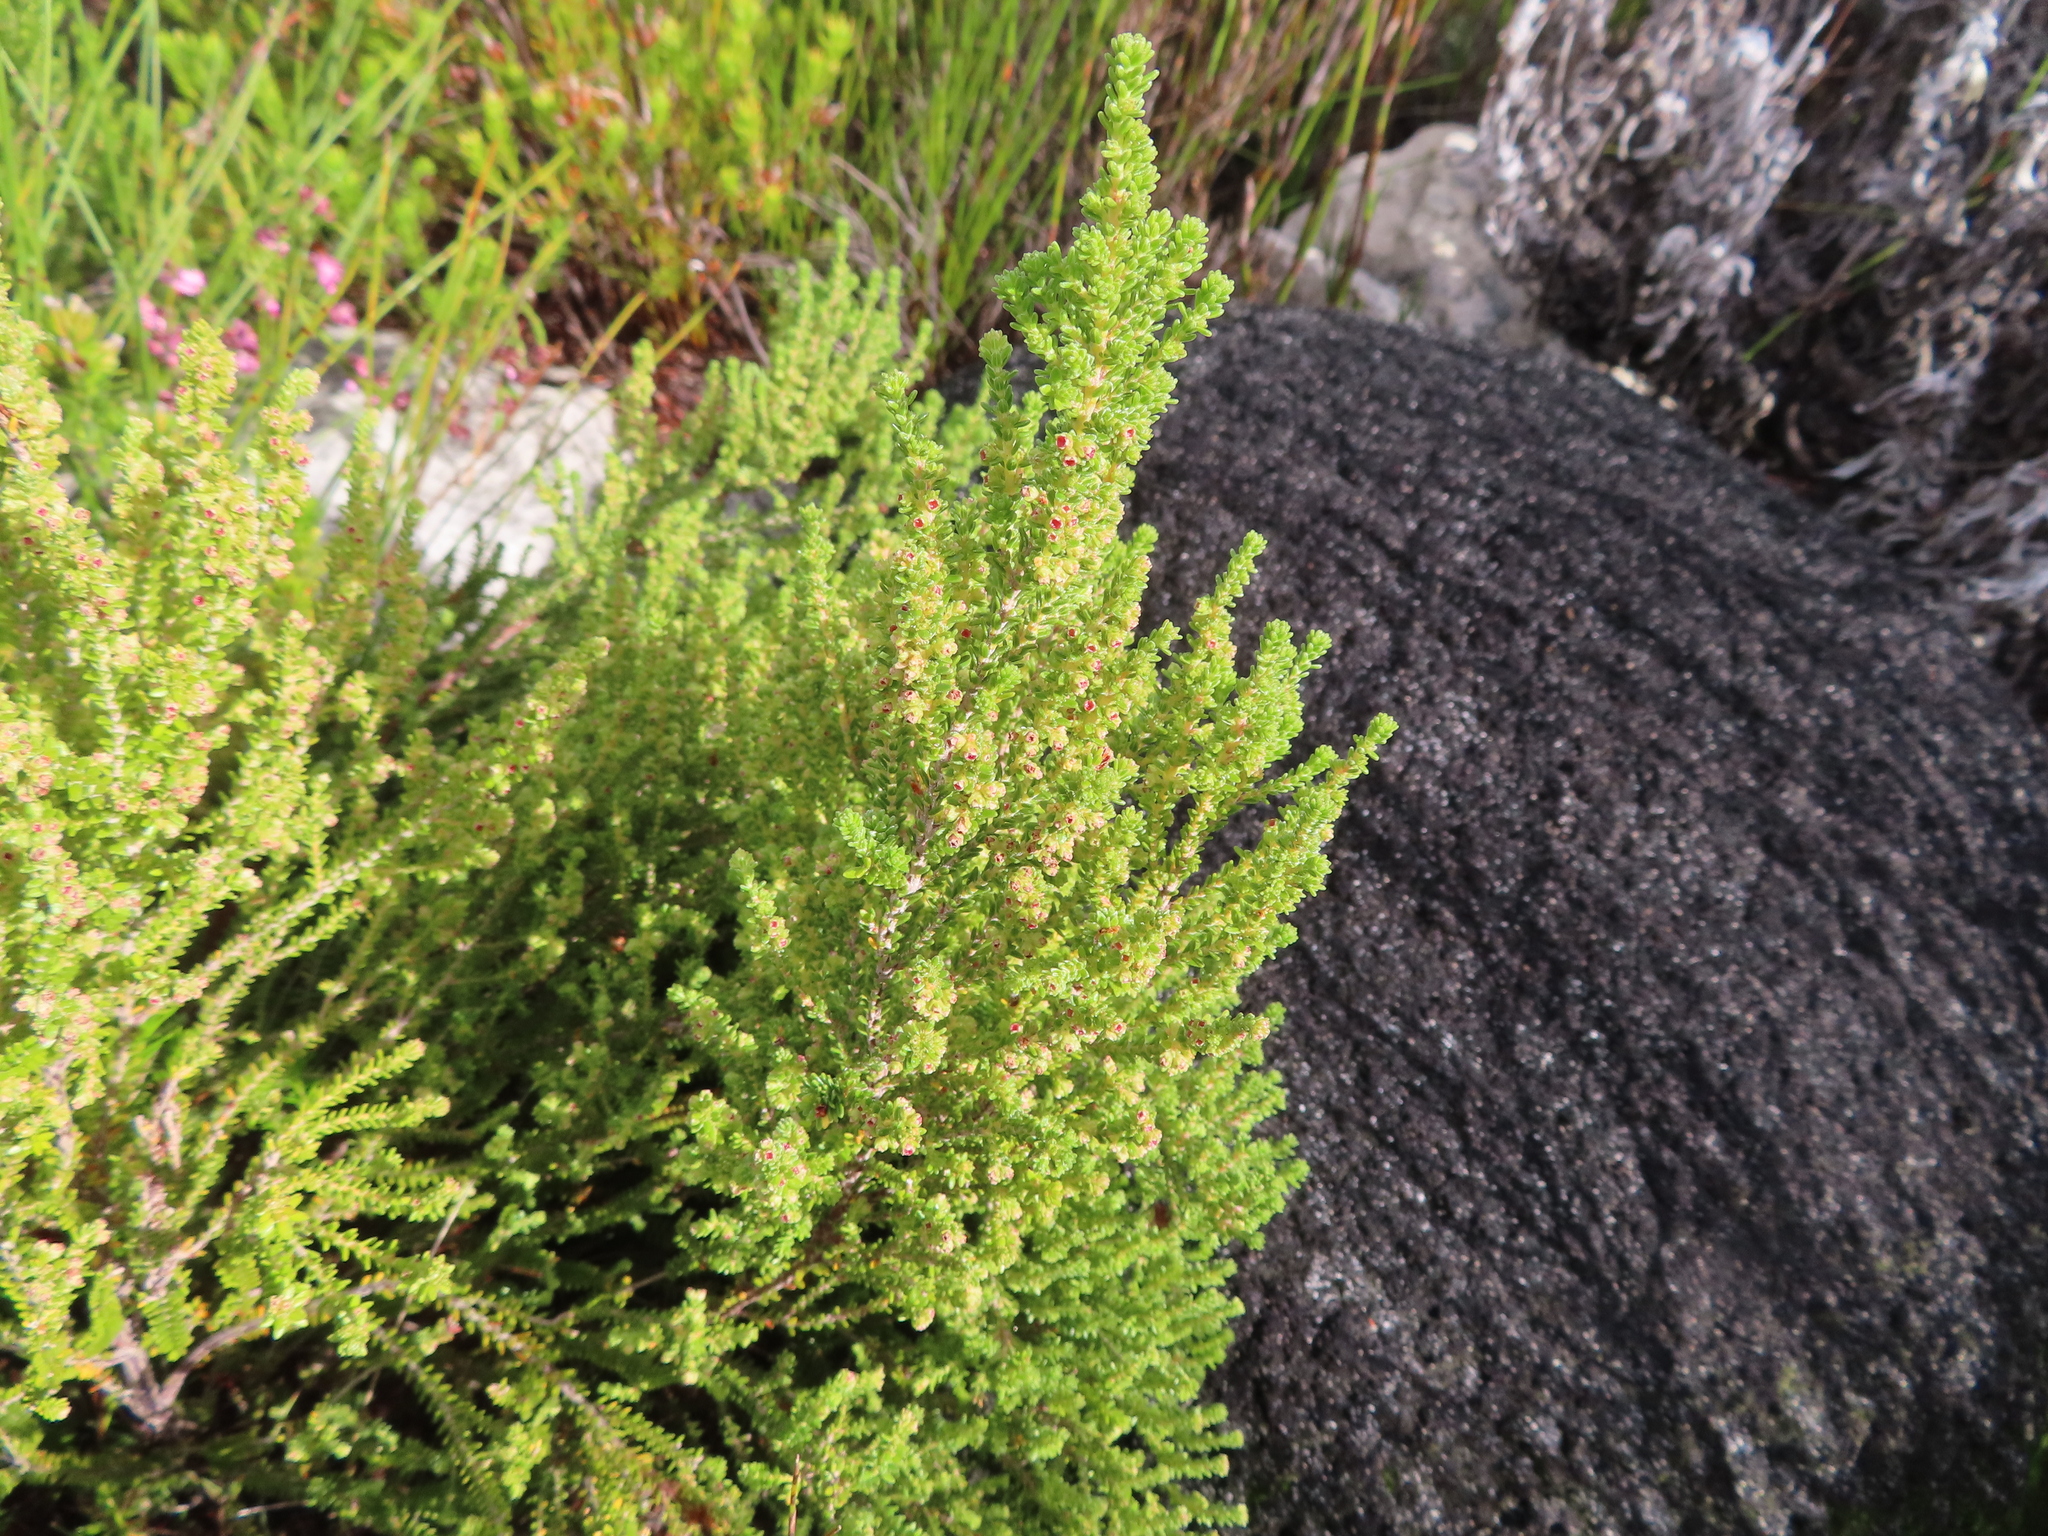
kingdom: Plantae
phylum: Tracheophyta
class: Magnoliopsida
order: Ericales
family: Ericaceae
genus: Erica
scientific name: Erica serrata
